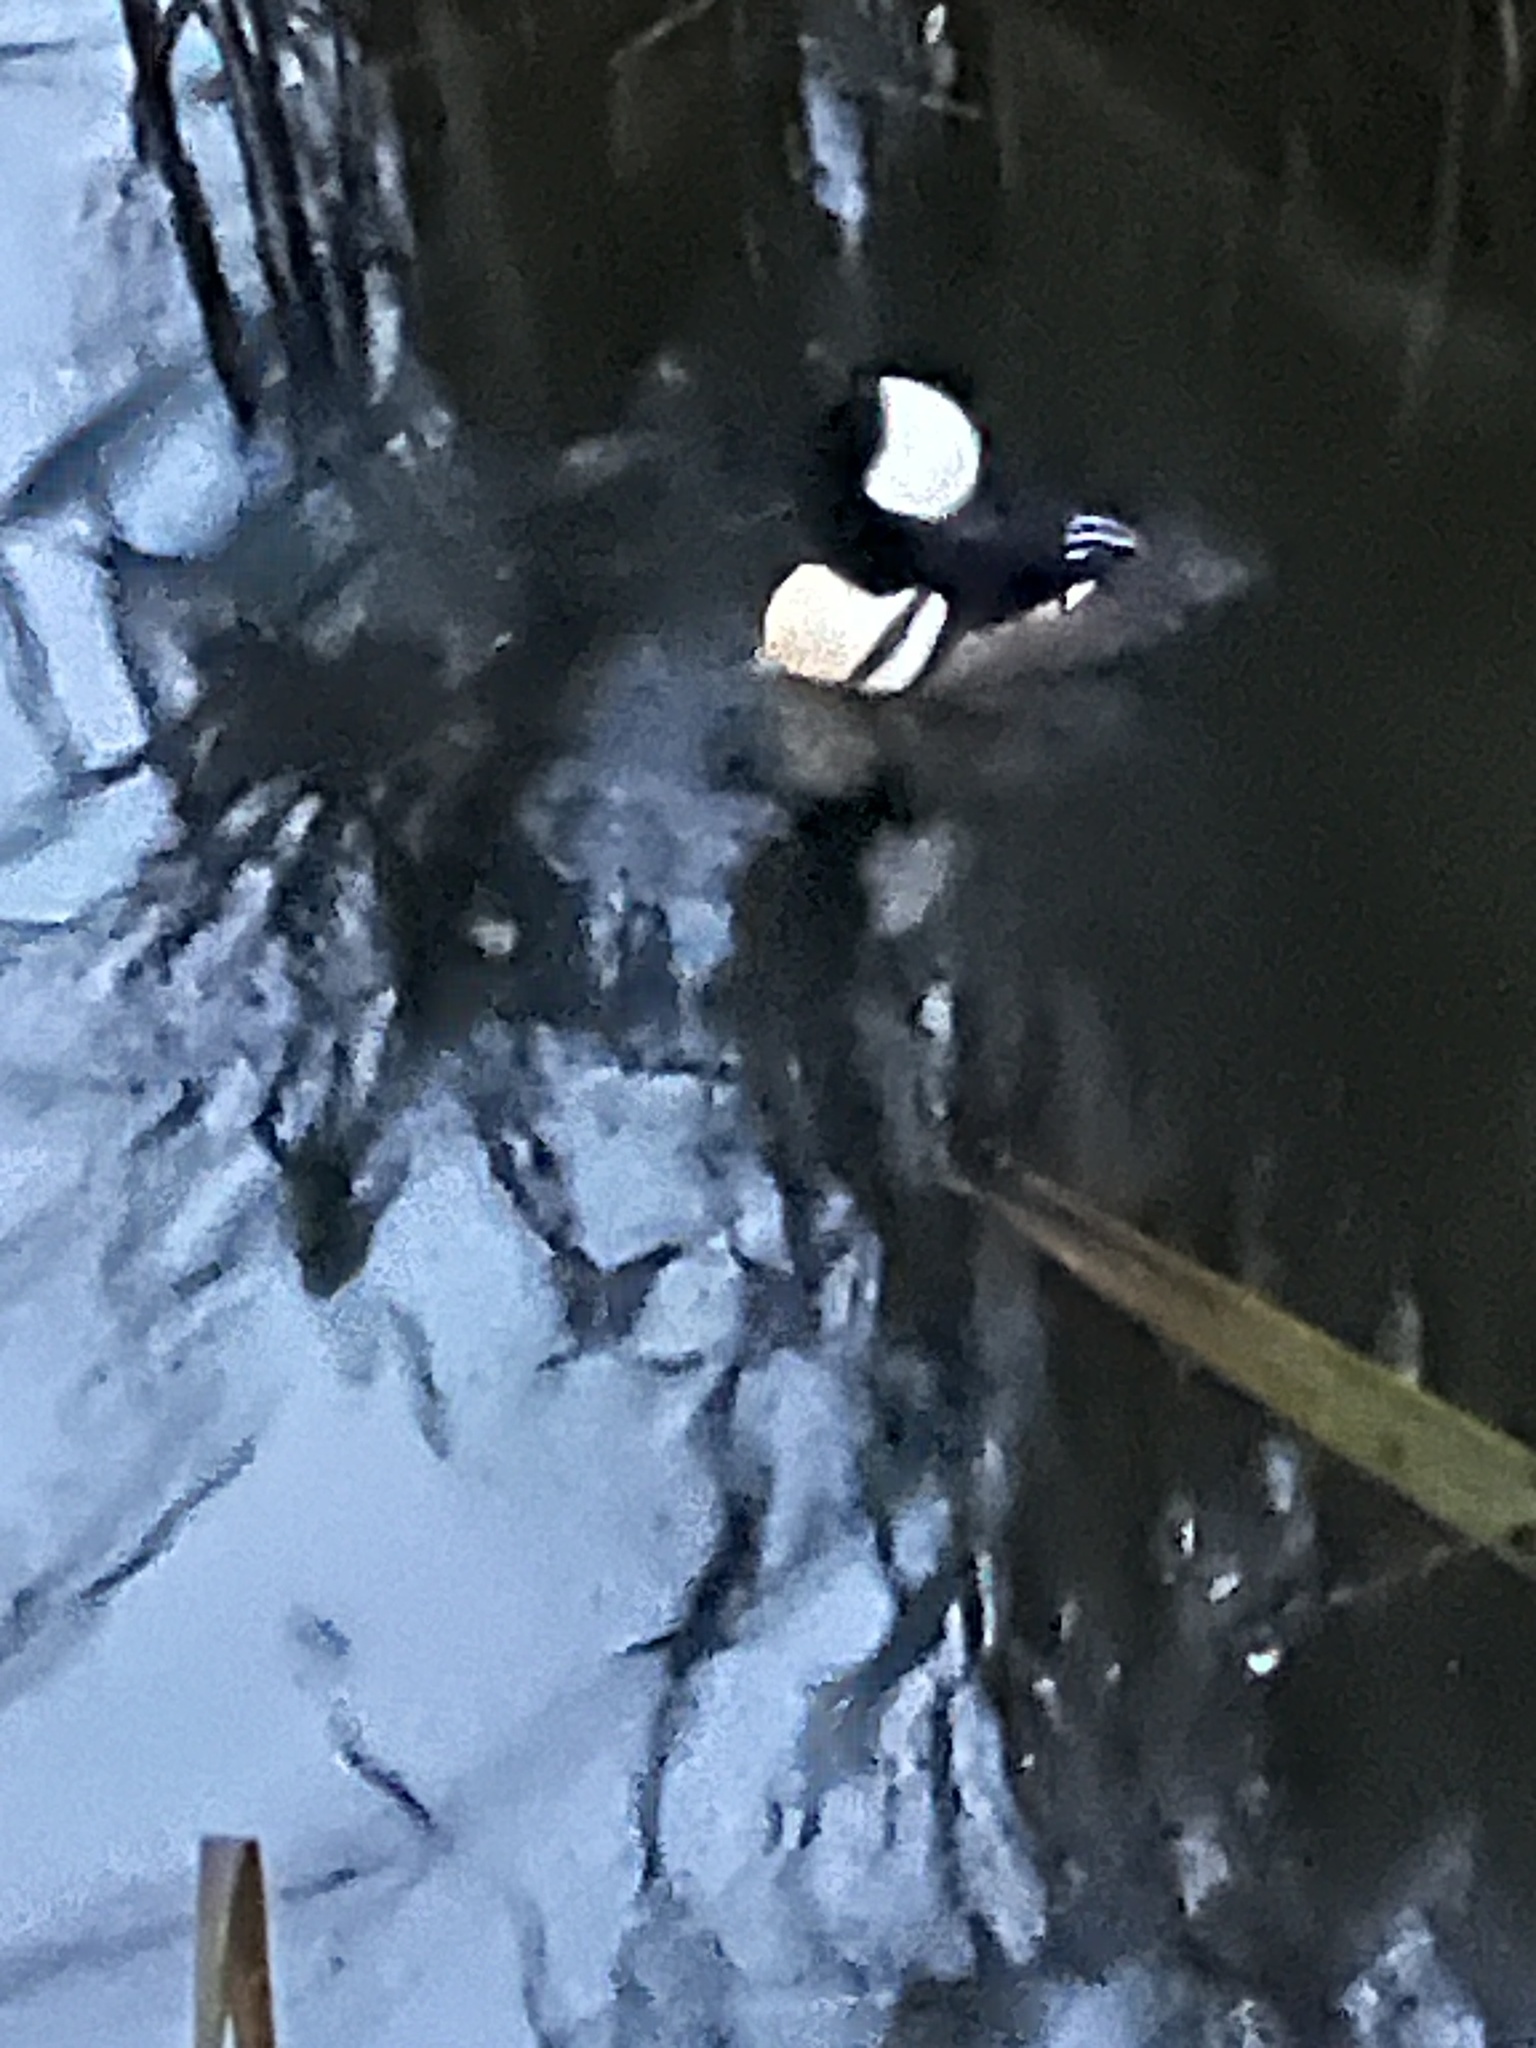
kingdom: Animalia
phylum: Chordata
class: Aves
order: Anseriformes
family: Anatidae
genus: Lophodytes
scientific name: Lophodytes cucullatus
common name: Hooded merganser
